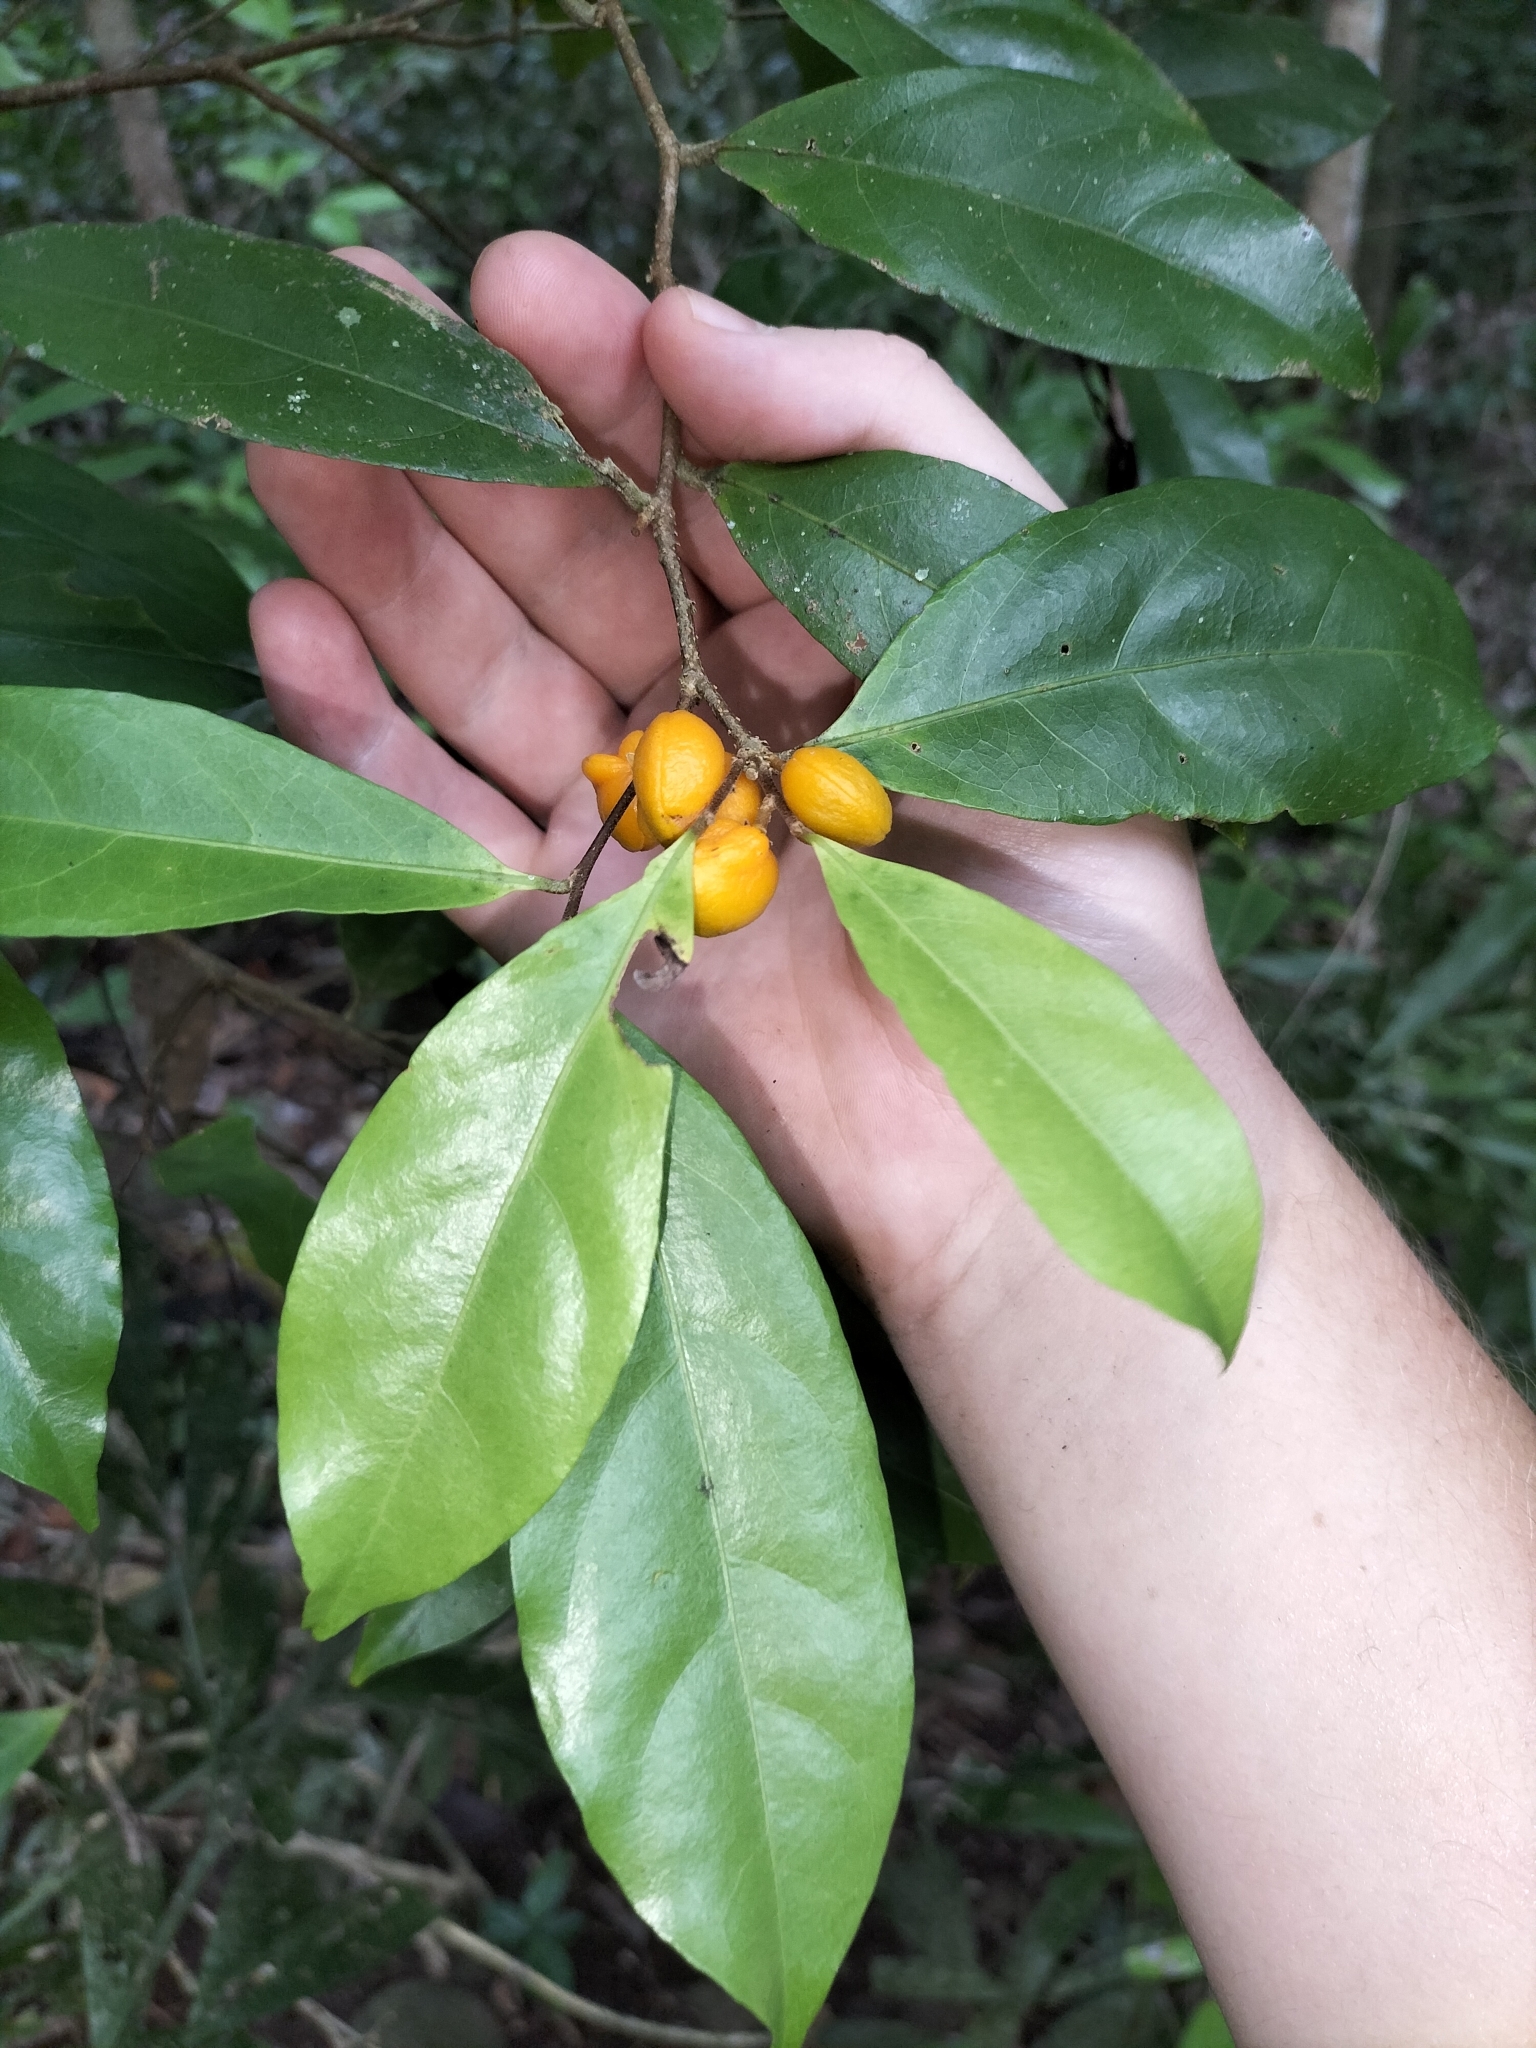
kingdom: Plantae
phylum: Tracheophyta
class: Magnoliopsida
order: Malpighiales
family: Dichapetalaceae
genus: Dichapetalum
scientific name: Dichapetalum papuanum
